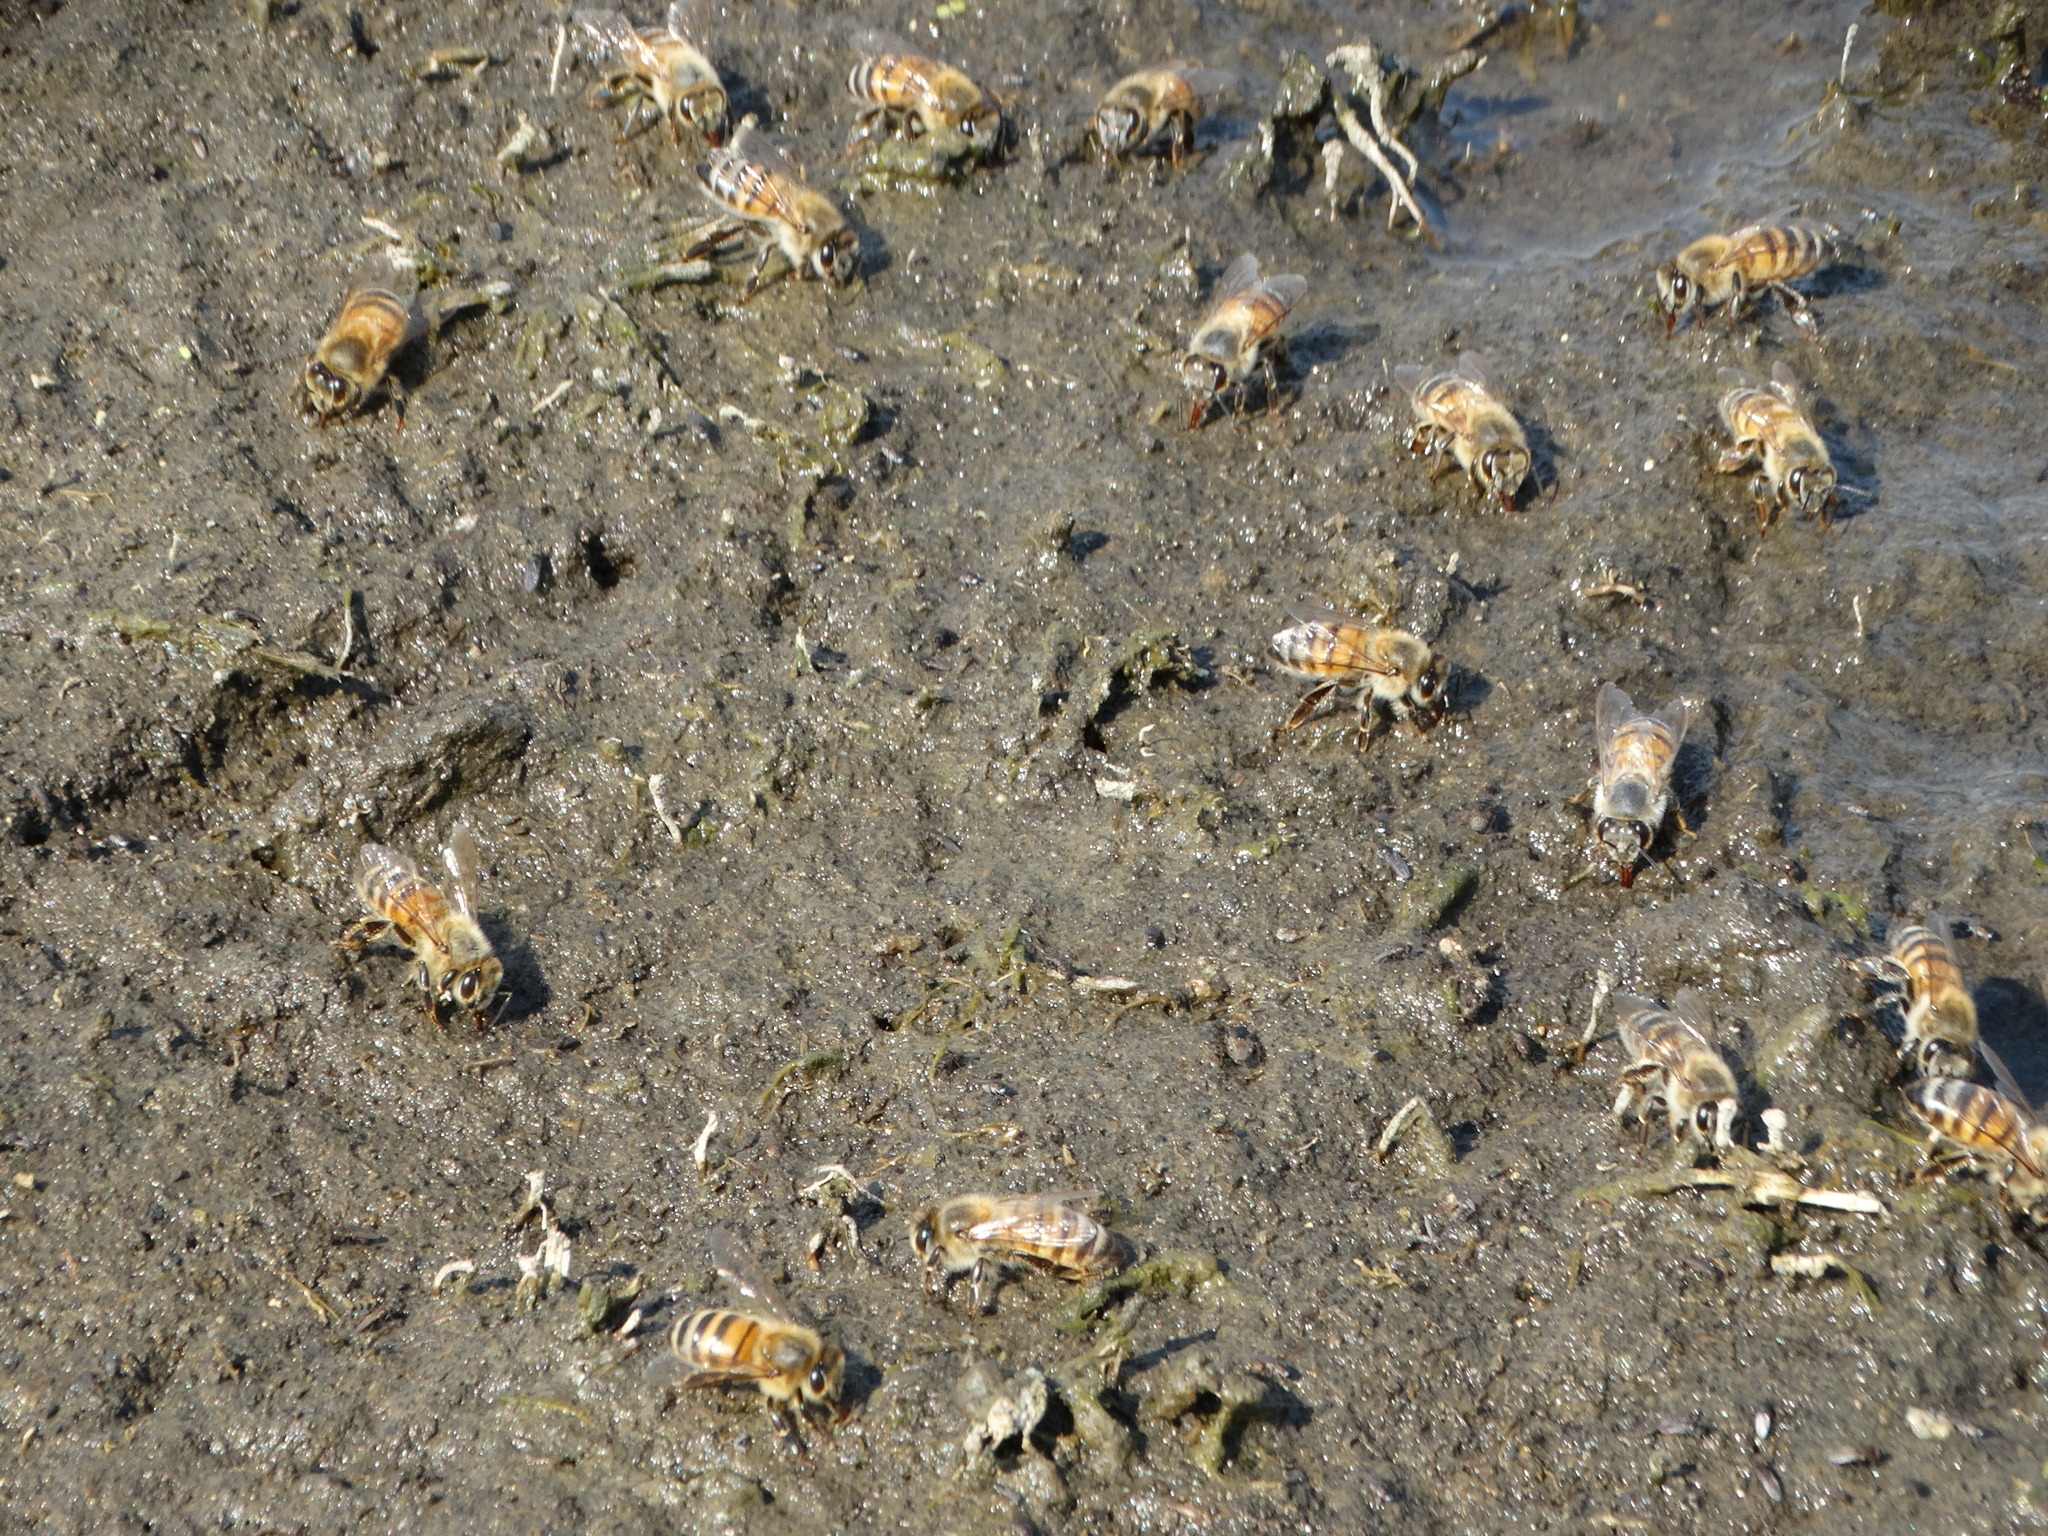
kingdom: Animalia
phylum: Arthropoda
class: Insecta
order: Hymenoptera
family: Apidae
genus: Apis
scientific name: Apis mellifera
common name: Honey bee
